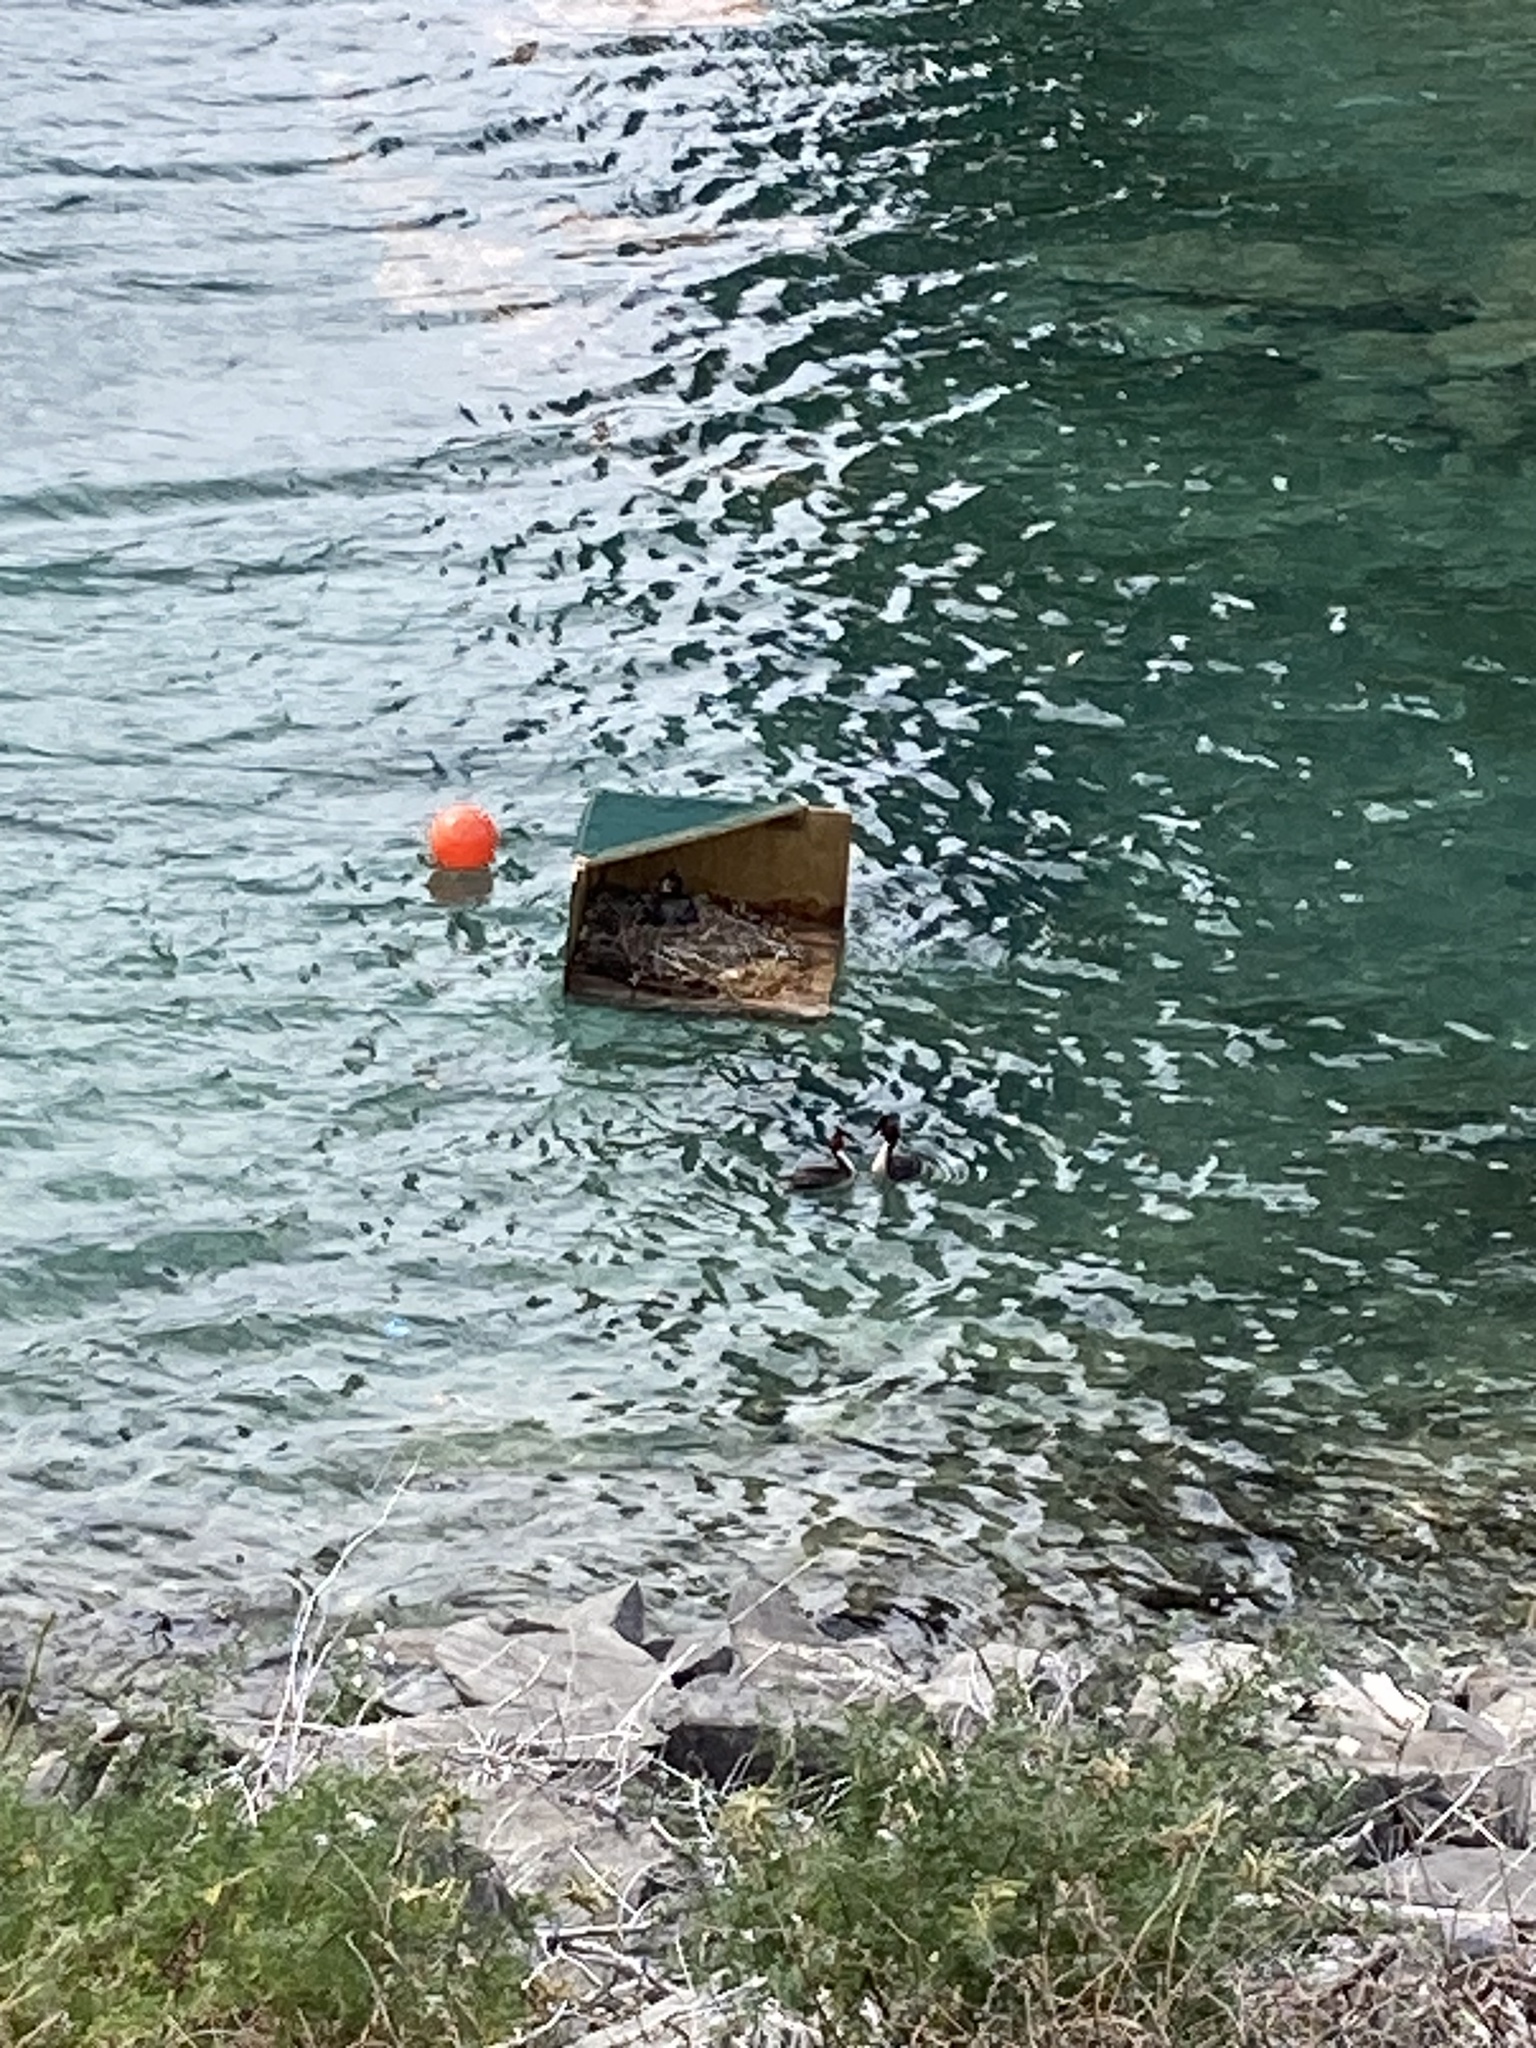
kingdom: Animalia
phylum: Chordata
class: Aves
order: Podicipediformes
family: Podicipedidae
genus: Podiceps
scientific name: Podiceps cristatus
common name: Great crested grebe
